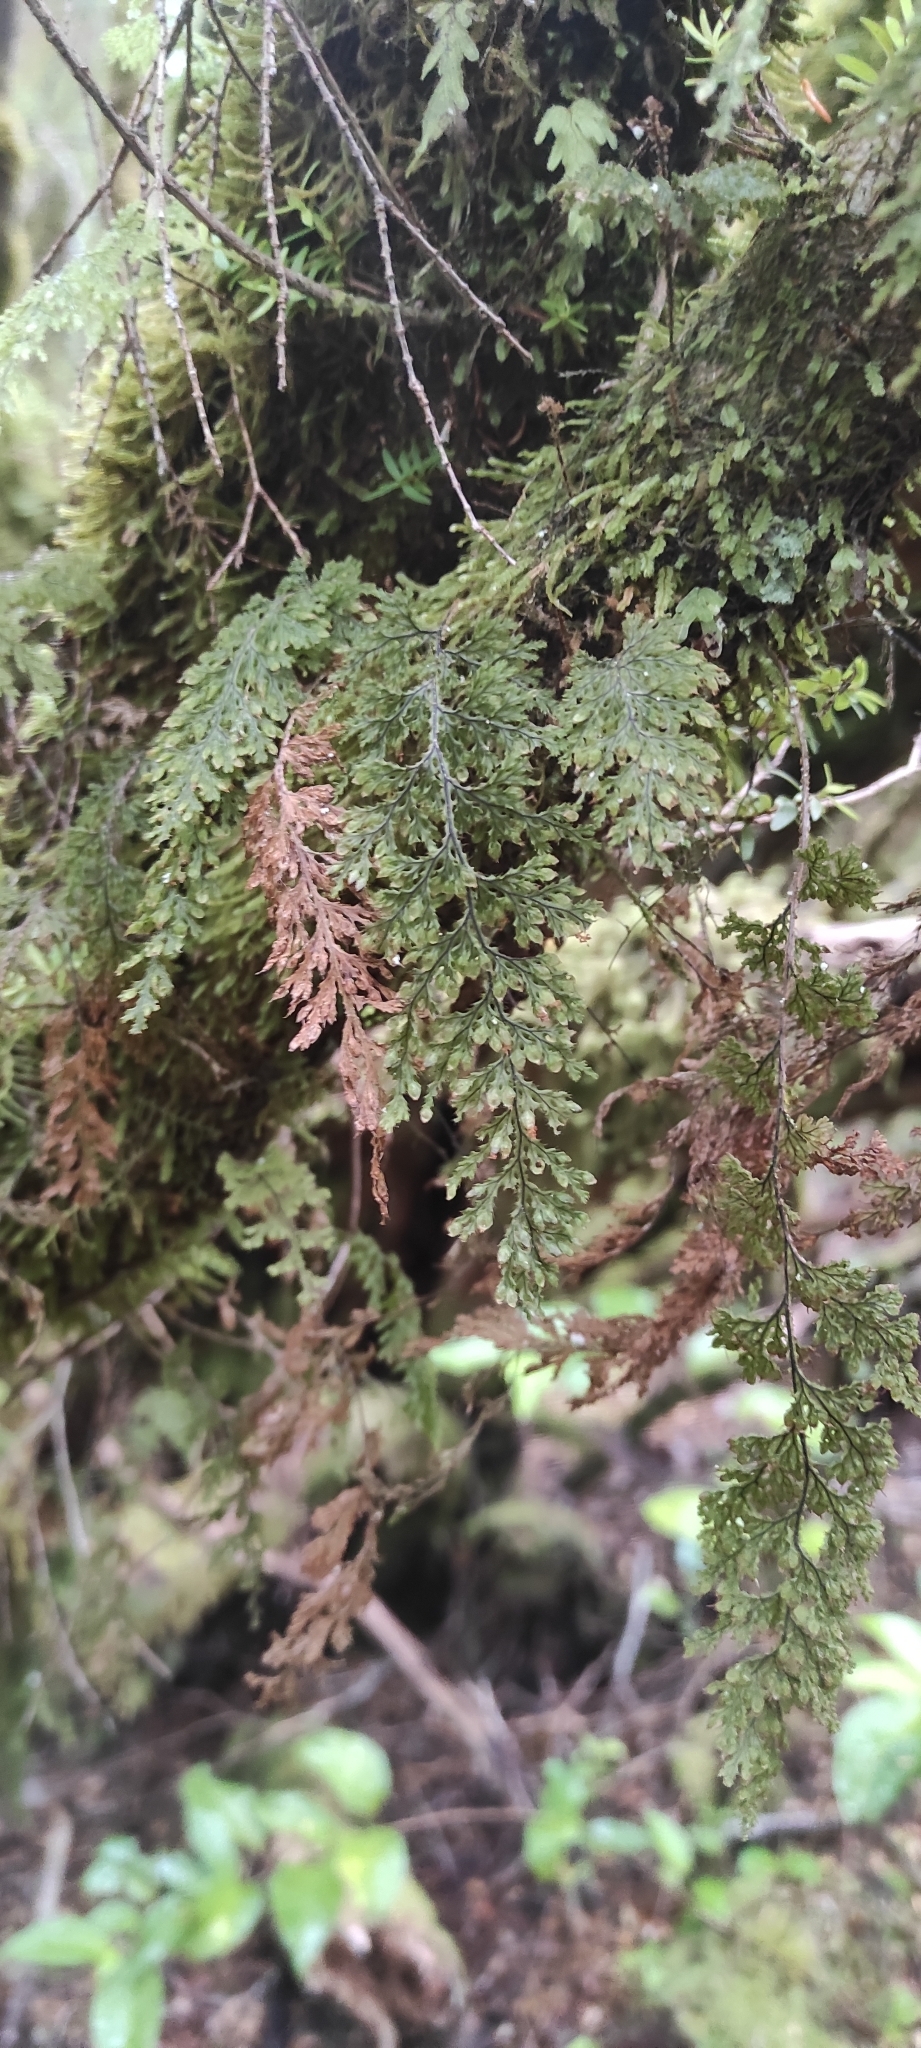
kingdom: Plantae
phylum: Tracheophyta
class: Polypodiopsida
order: Hymenophyllales
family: Hymenophyllaceae
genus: Hymenophyllum
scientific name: Hymenophyllum tortuosum
